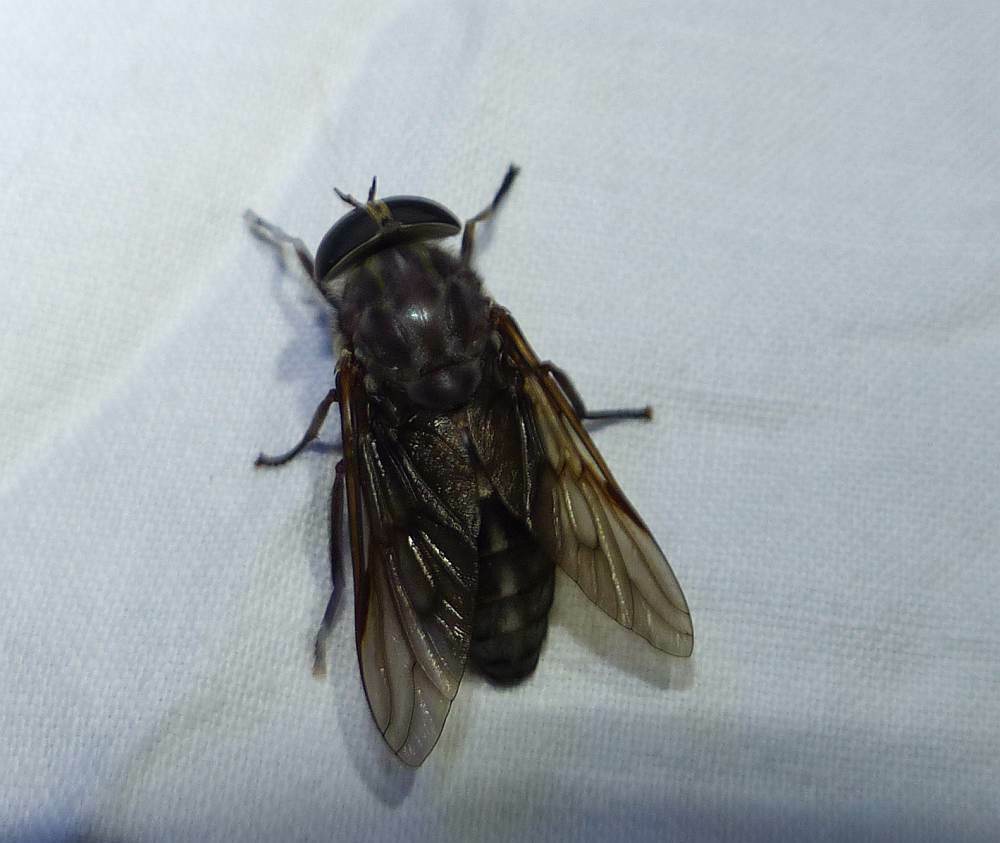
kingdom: Animalia
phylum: Arthropoda
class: Insecta
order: Diptera
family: Tabanidae
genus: Tabanus
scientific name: Tabanus catenatus
